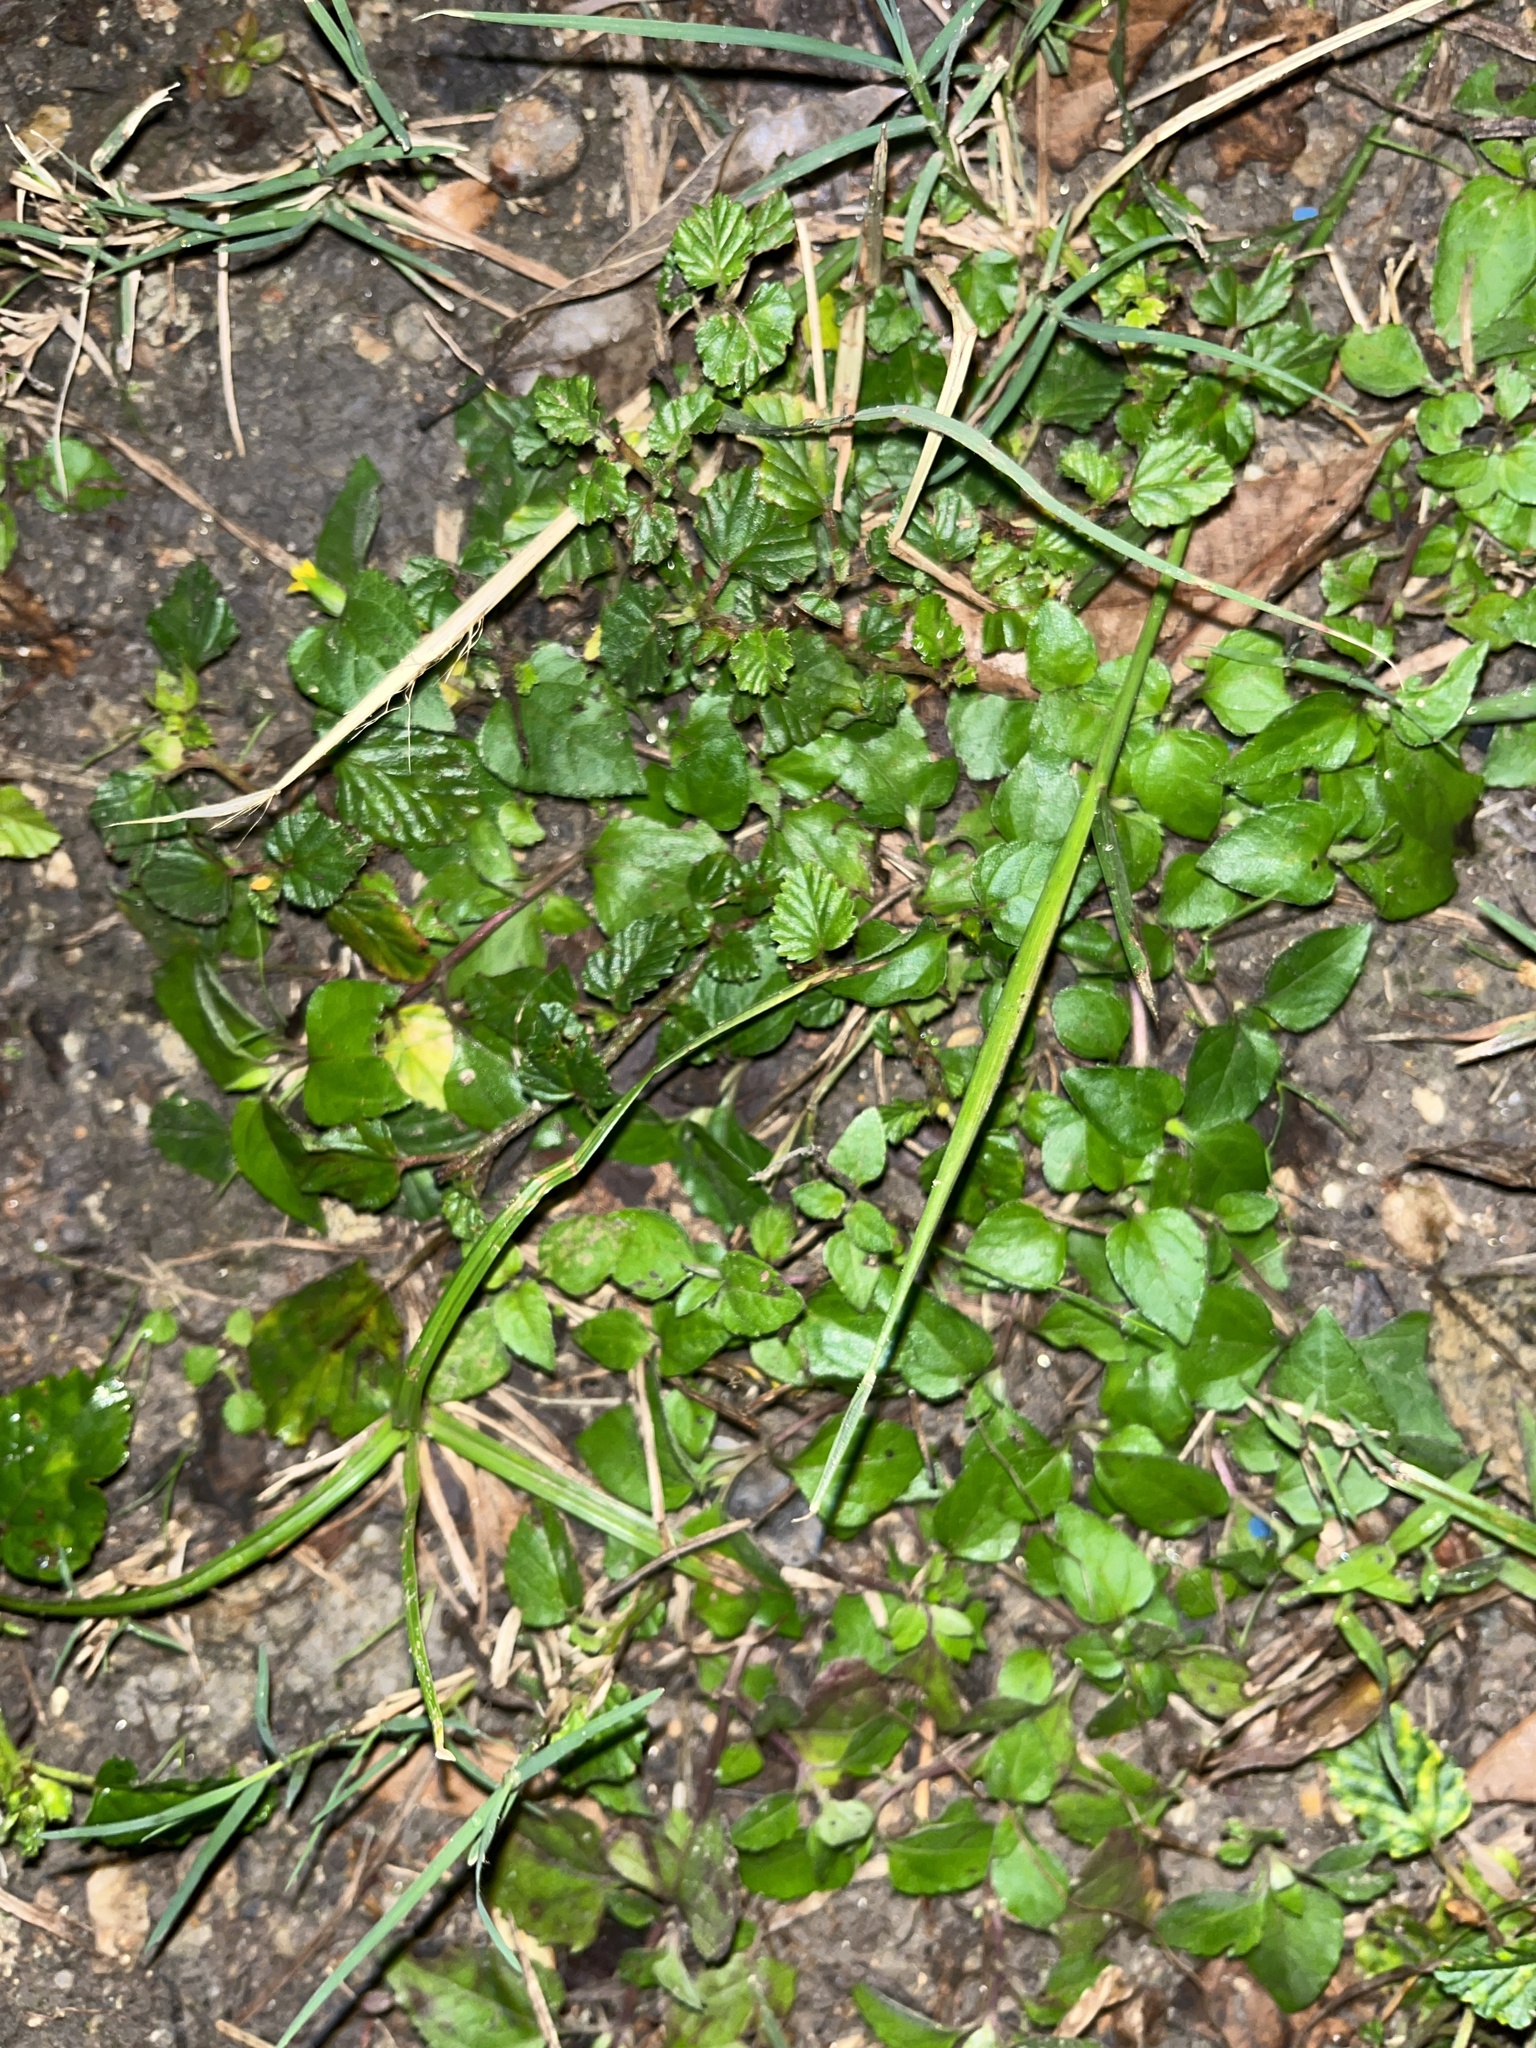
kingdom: Plantae
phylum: Tracheophyta
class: Magnoliopsida
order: Asterales
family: Asteraceae
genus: Calyptocarpus
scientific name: Calyptocarpus vialis
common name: Straggler daisy
